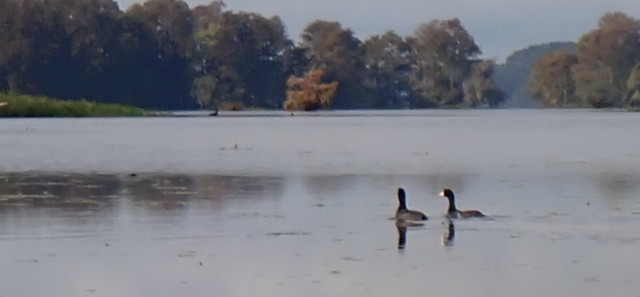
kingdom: Animalia
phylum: Chordata
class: Aves
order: Gruiformes
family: Rallidae
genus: Fulica
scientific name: Fulica americana
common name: American coot
